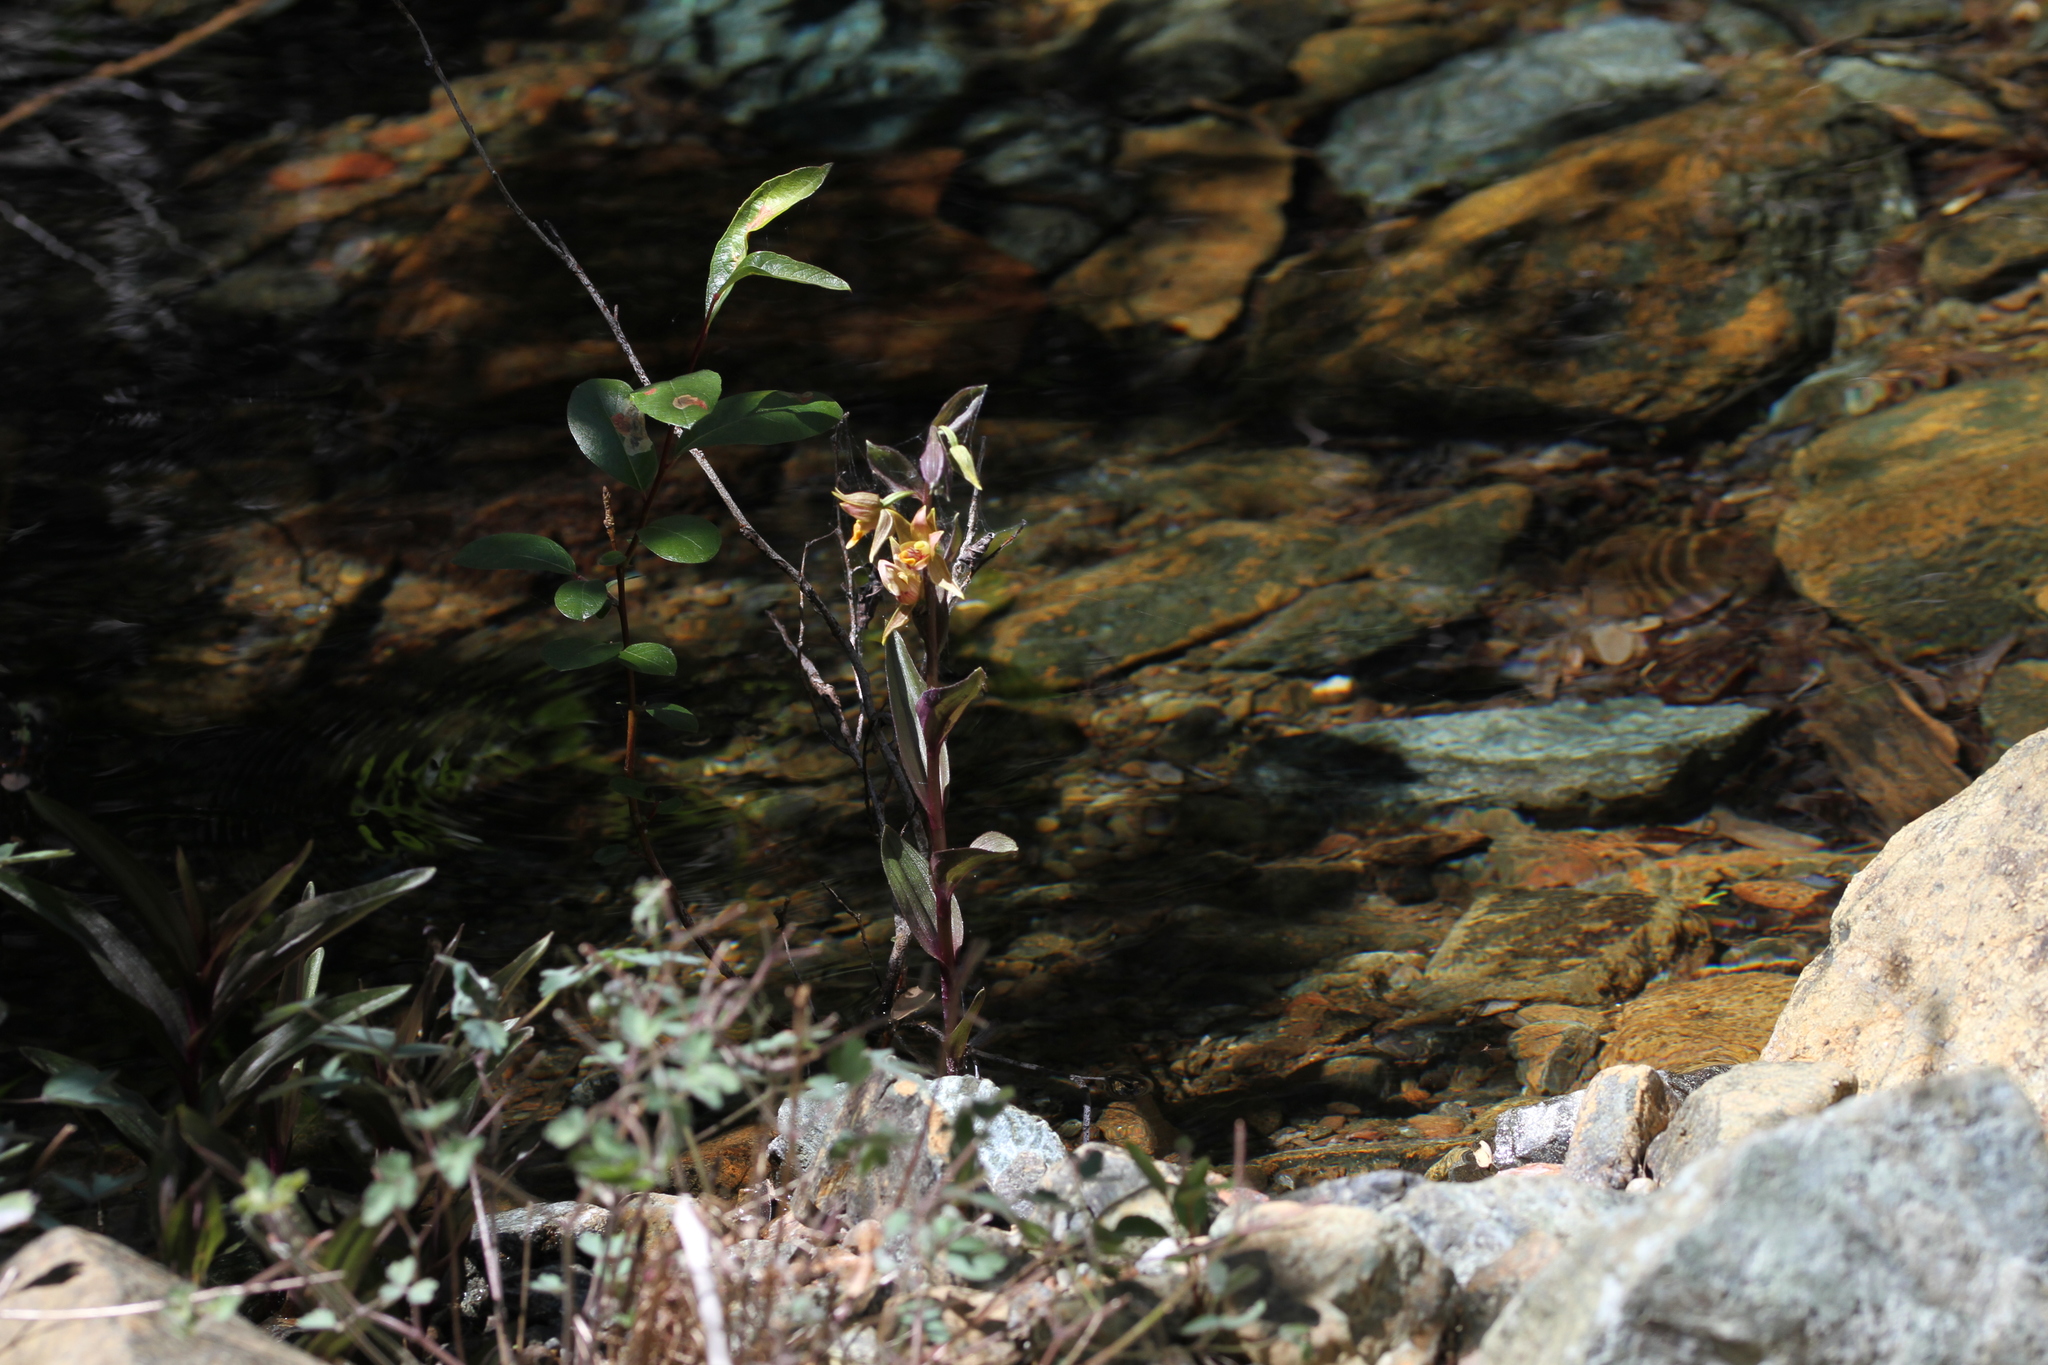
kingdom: Plantae
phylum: Tracheophyta
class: Liliopsida
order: Asparagales
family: Orchidaceae
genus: Epipactis
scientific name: Epipactis gigantea
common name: Chatterbox
